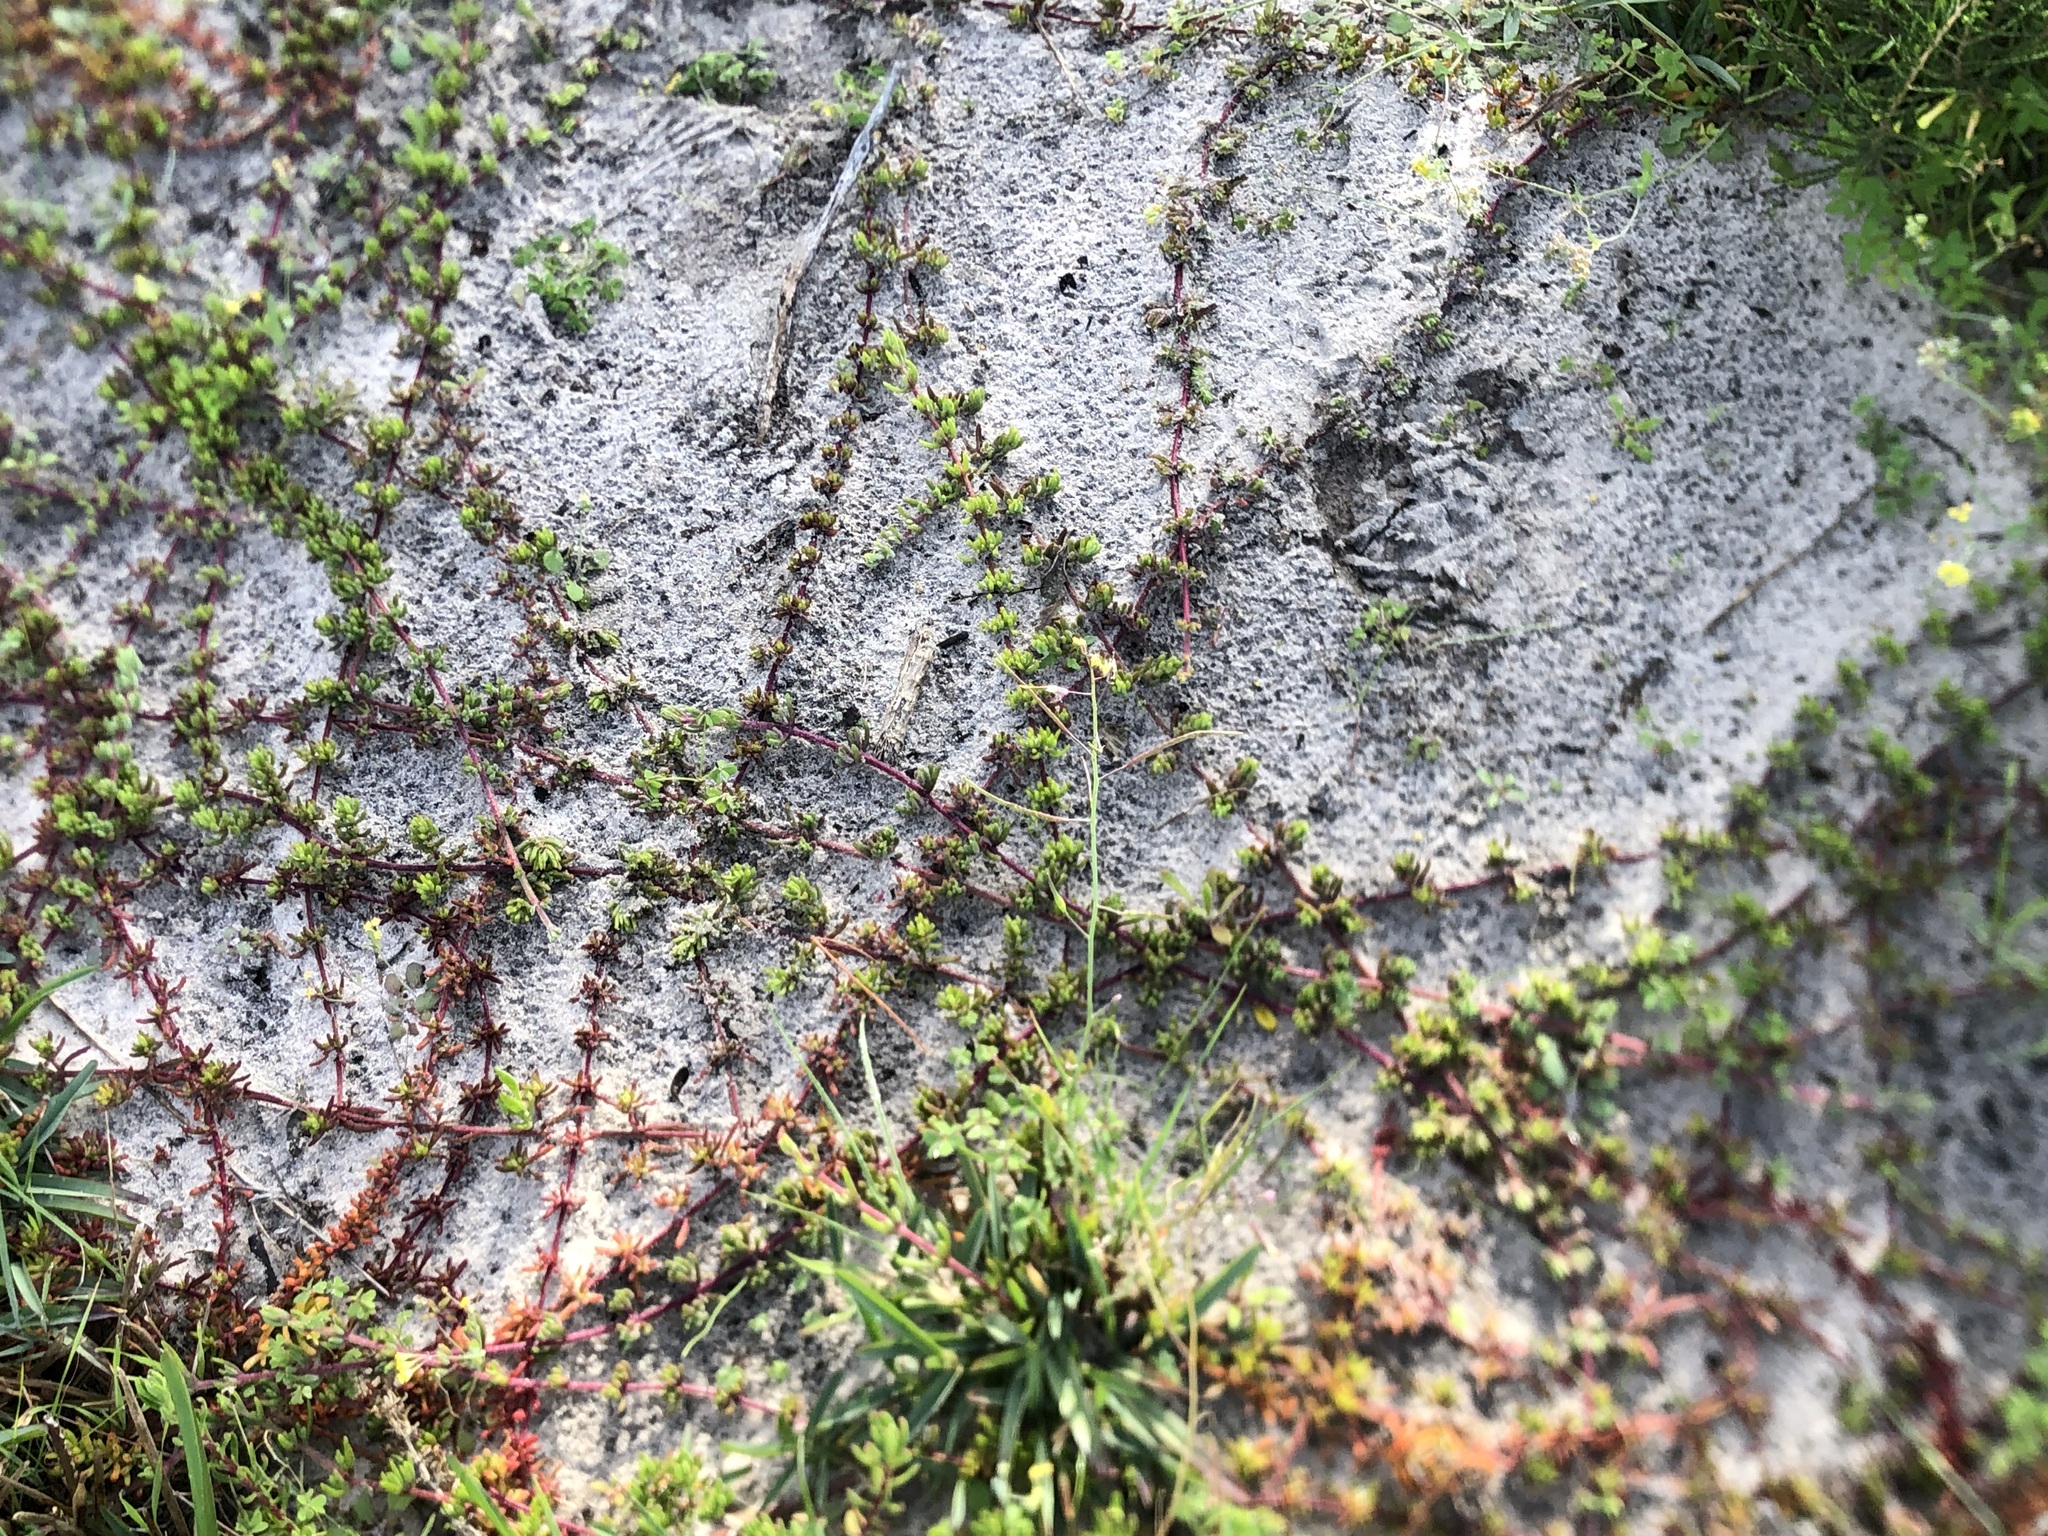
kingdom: Plantae
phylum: Tracheophyta
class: Magnoliopsida
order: Caryophyllales
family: Aizoaceae
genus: Mesembryanthemum
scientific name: Mesembryanthemum canaliculatum
